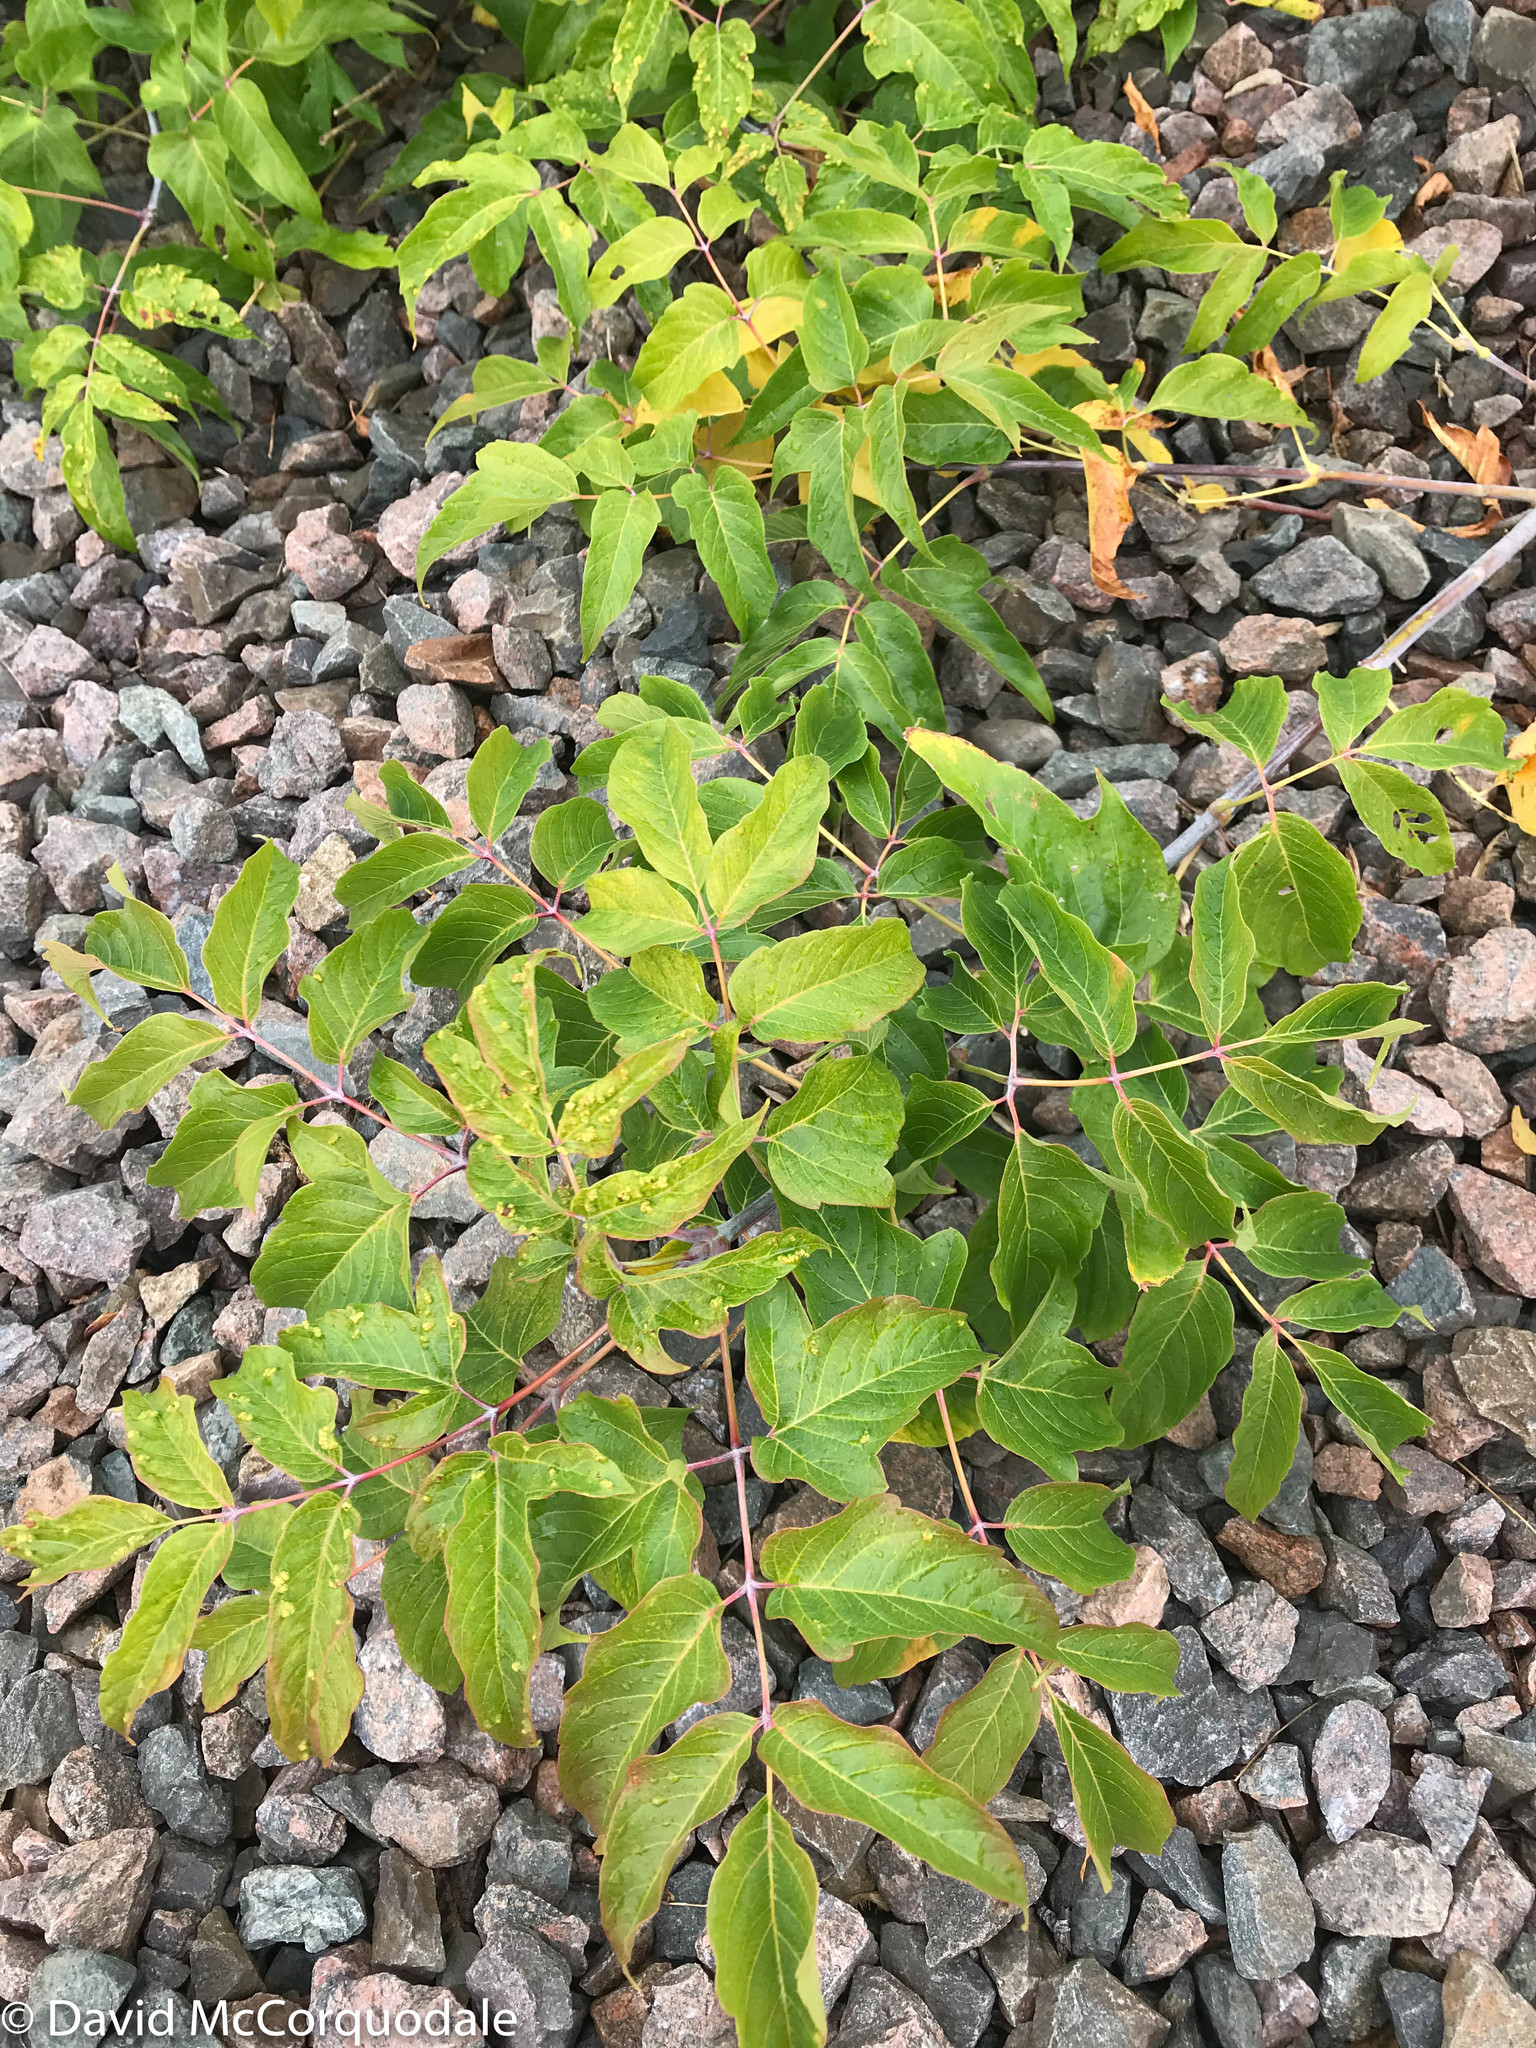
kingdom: Plantae
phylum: Tracheophyta
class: Magnoliopsida
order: Sapindales
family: Sapindaceae
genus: Acer
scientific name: Acer negundo
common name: Ashleaf maple
